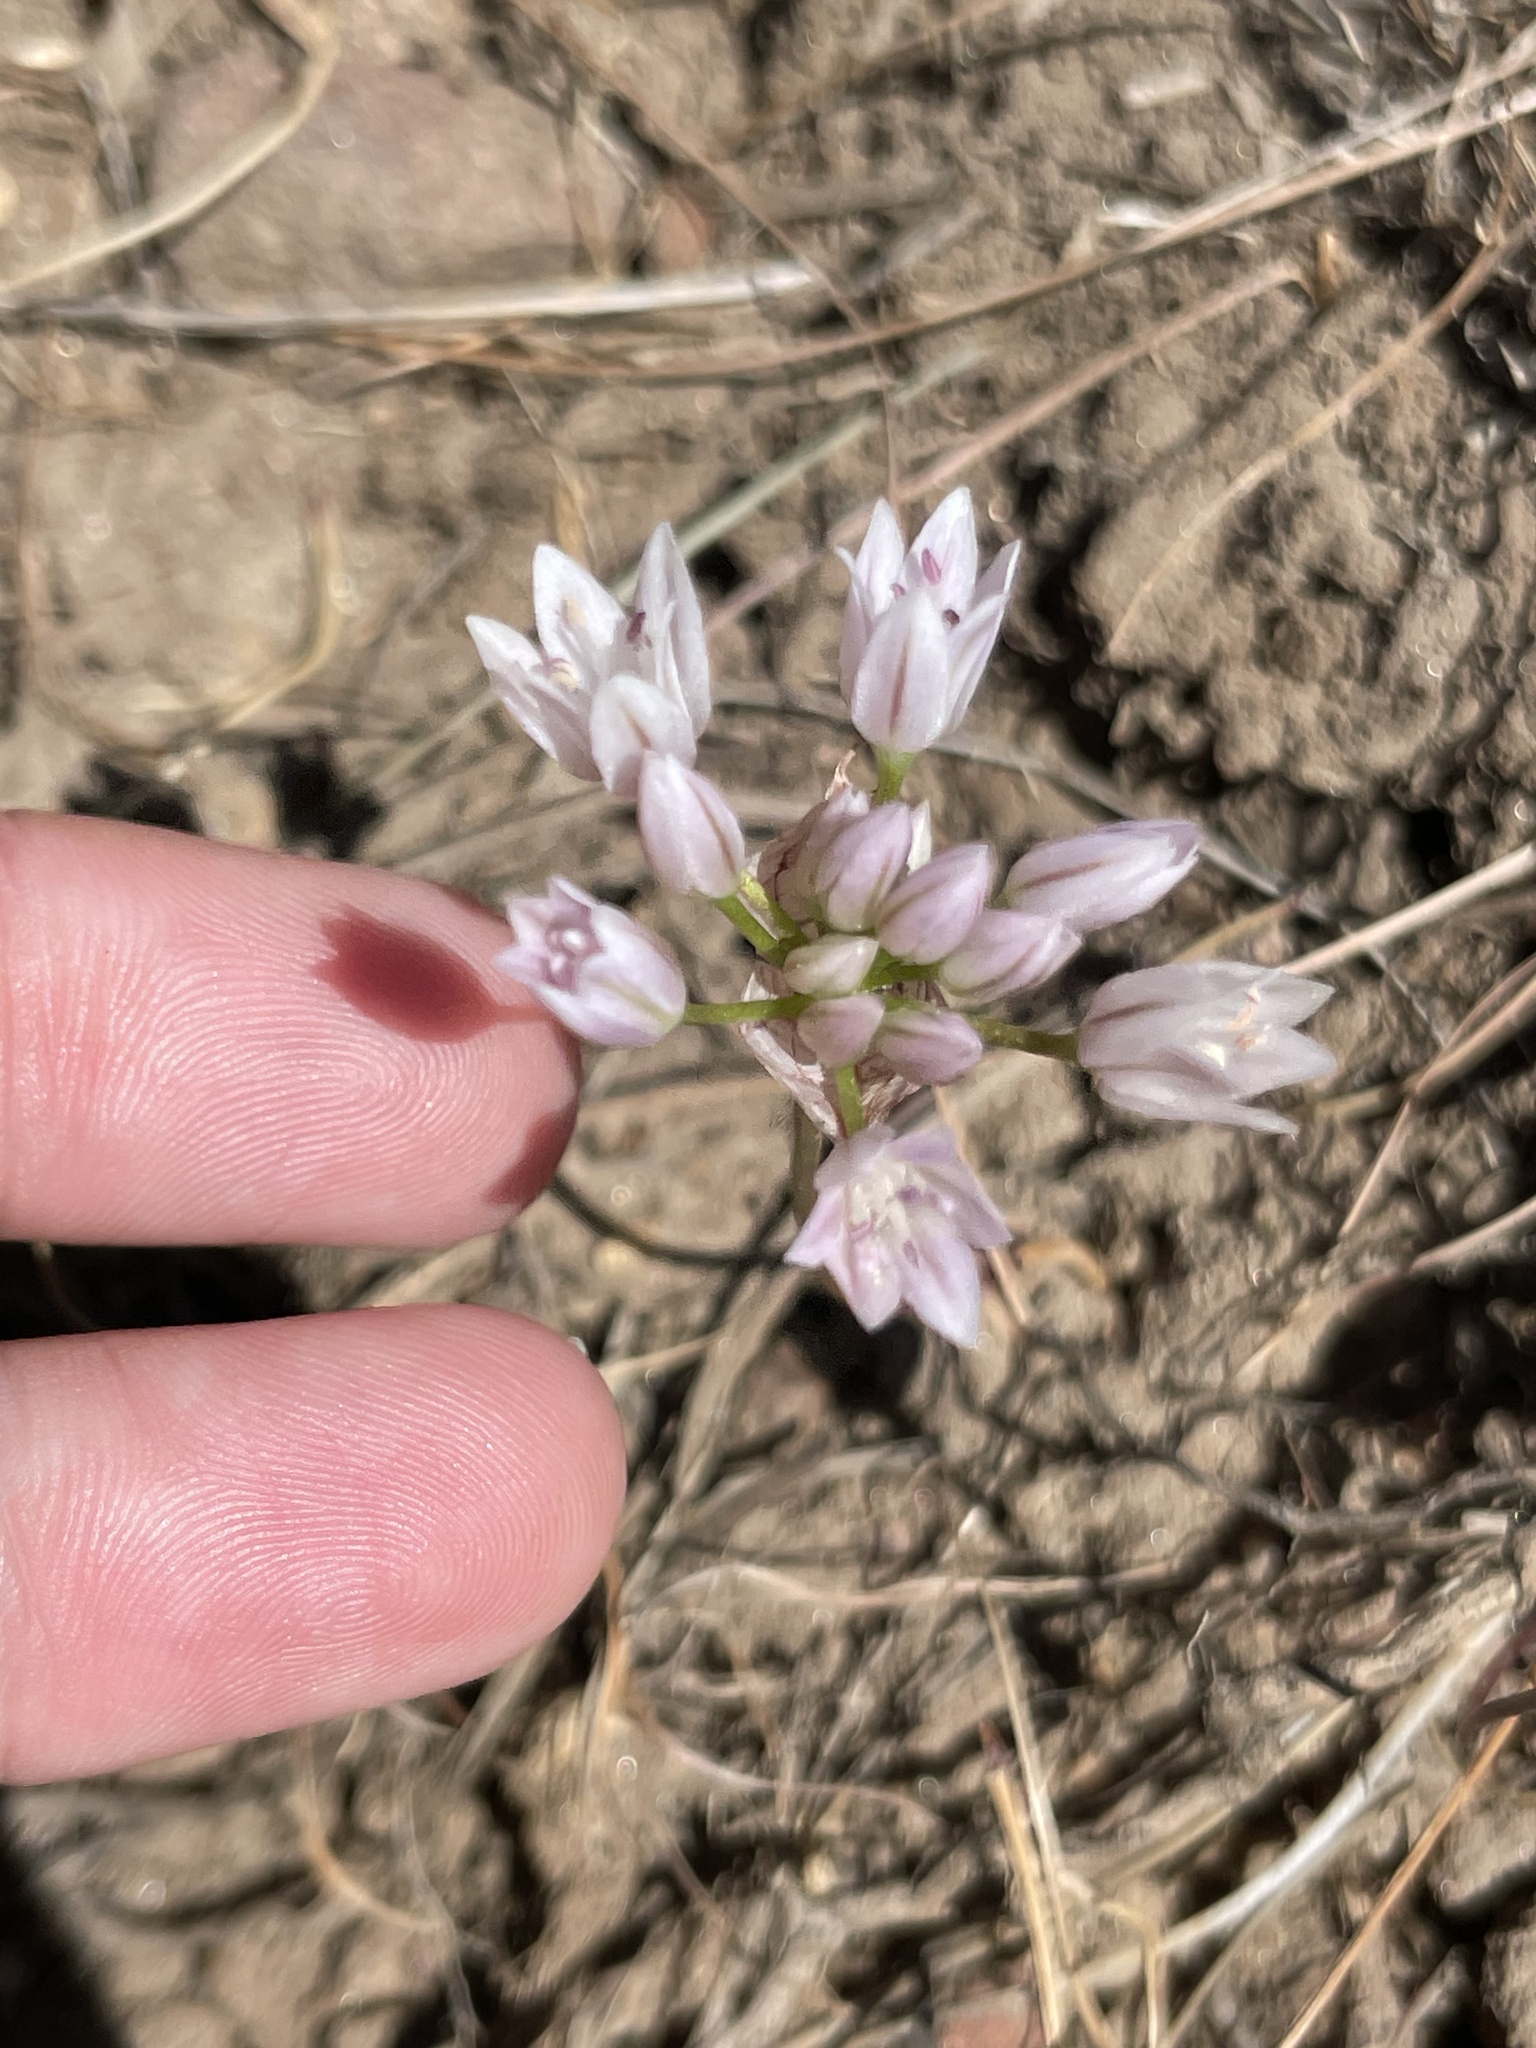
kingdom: Plantae
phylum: Tracheophyta
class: Liliopsida
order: Asparagales
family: Amaryllidaceae
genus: Allium
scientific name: Allium parryi
